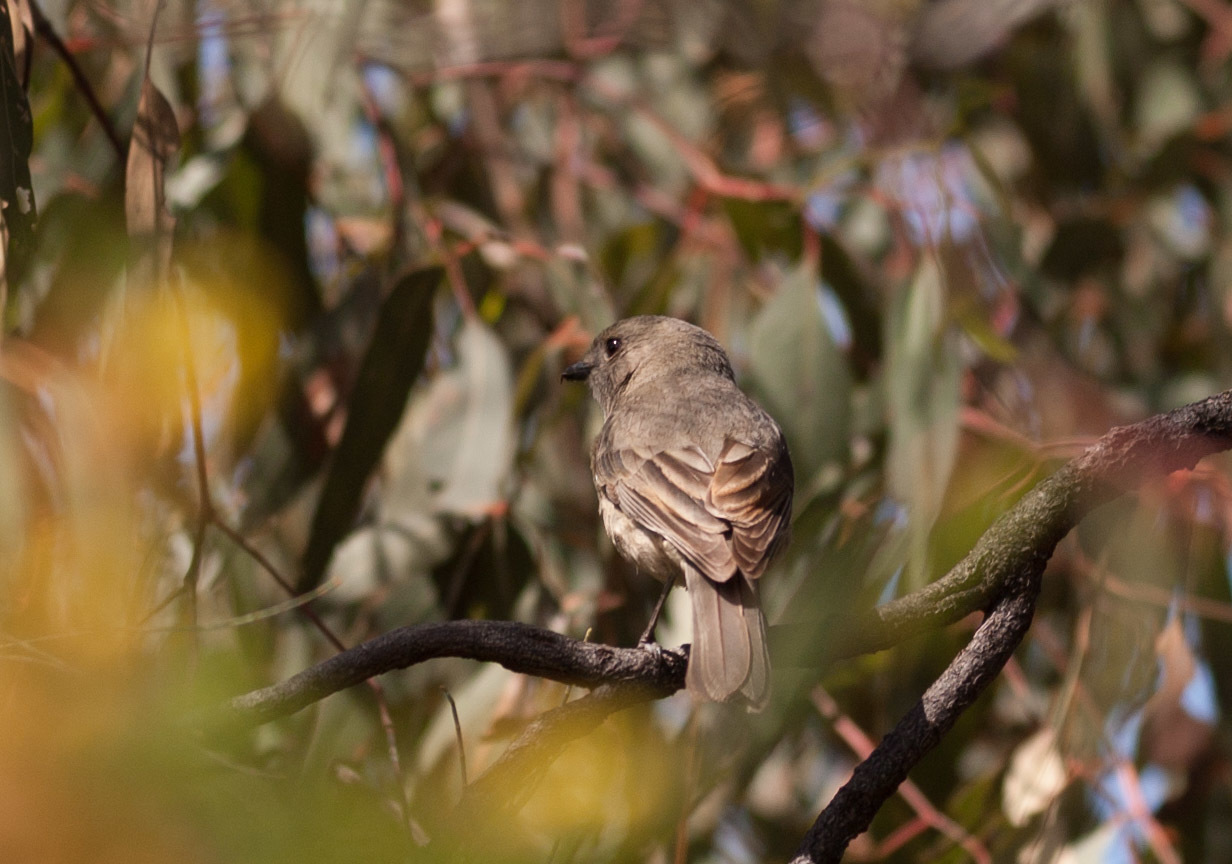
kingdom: Animalia
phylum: Chordata
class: Aves
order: Passeriformes
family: Pachycephalidae
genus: Pachycephala
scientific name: Pachycephala fuliginosa
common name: Western whistler
